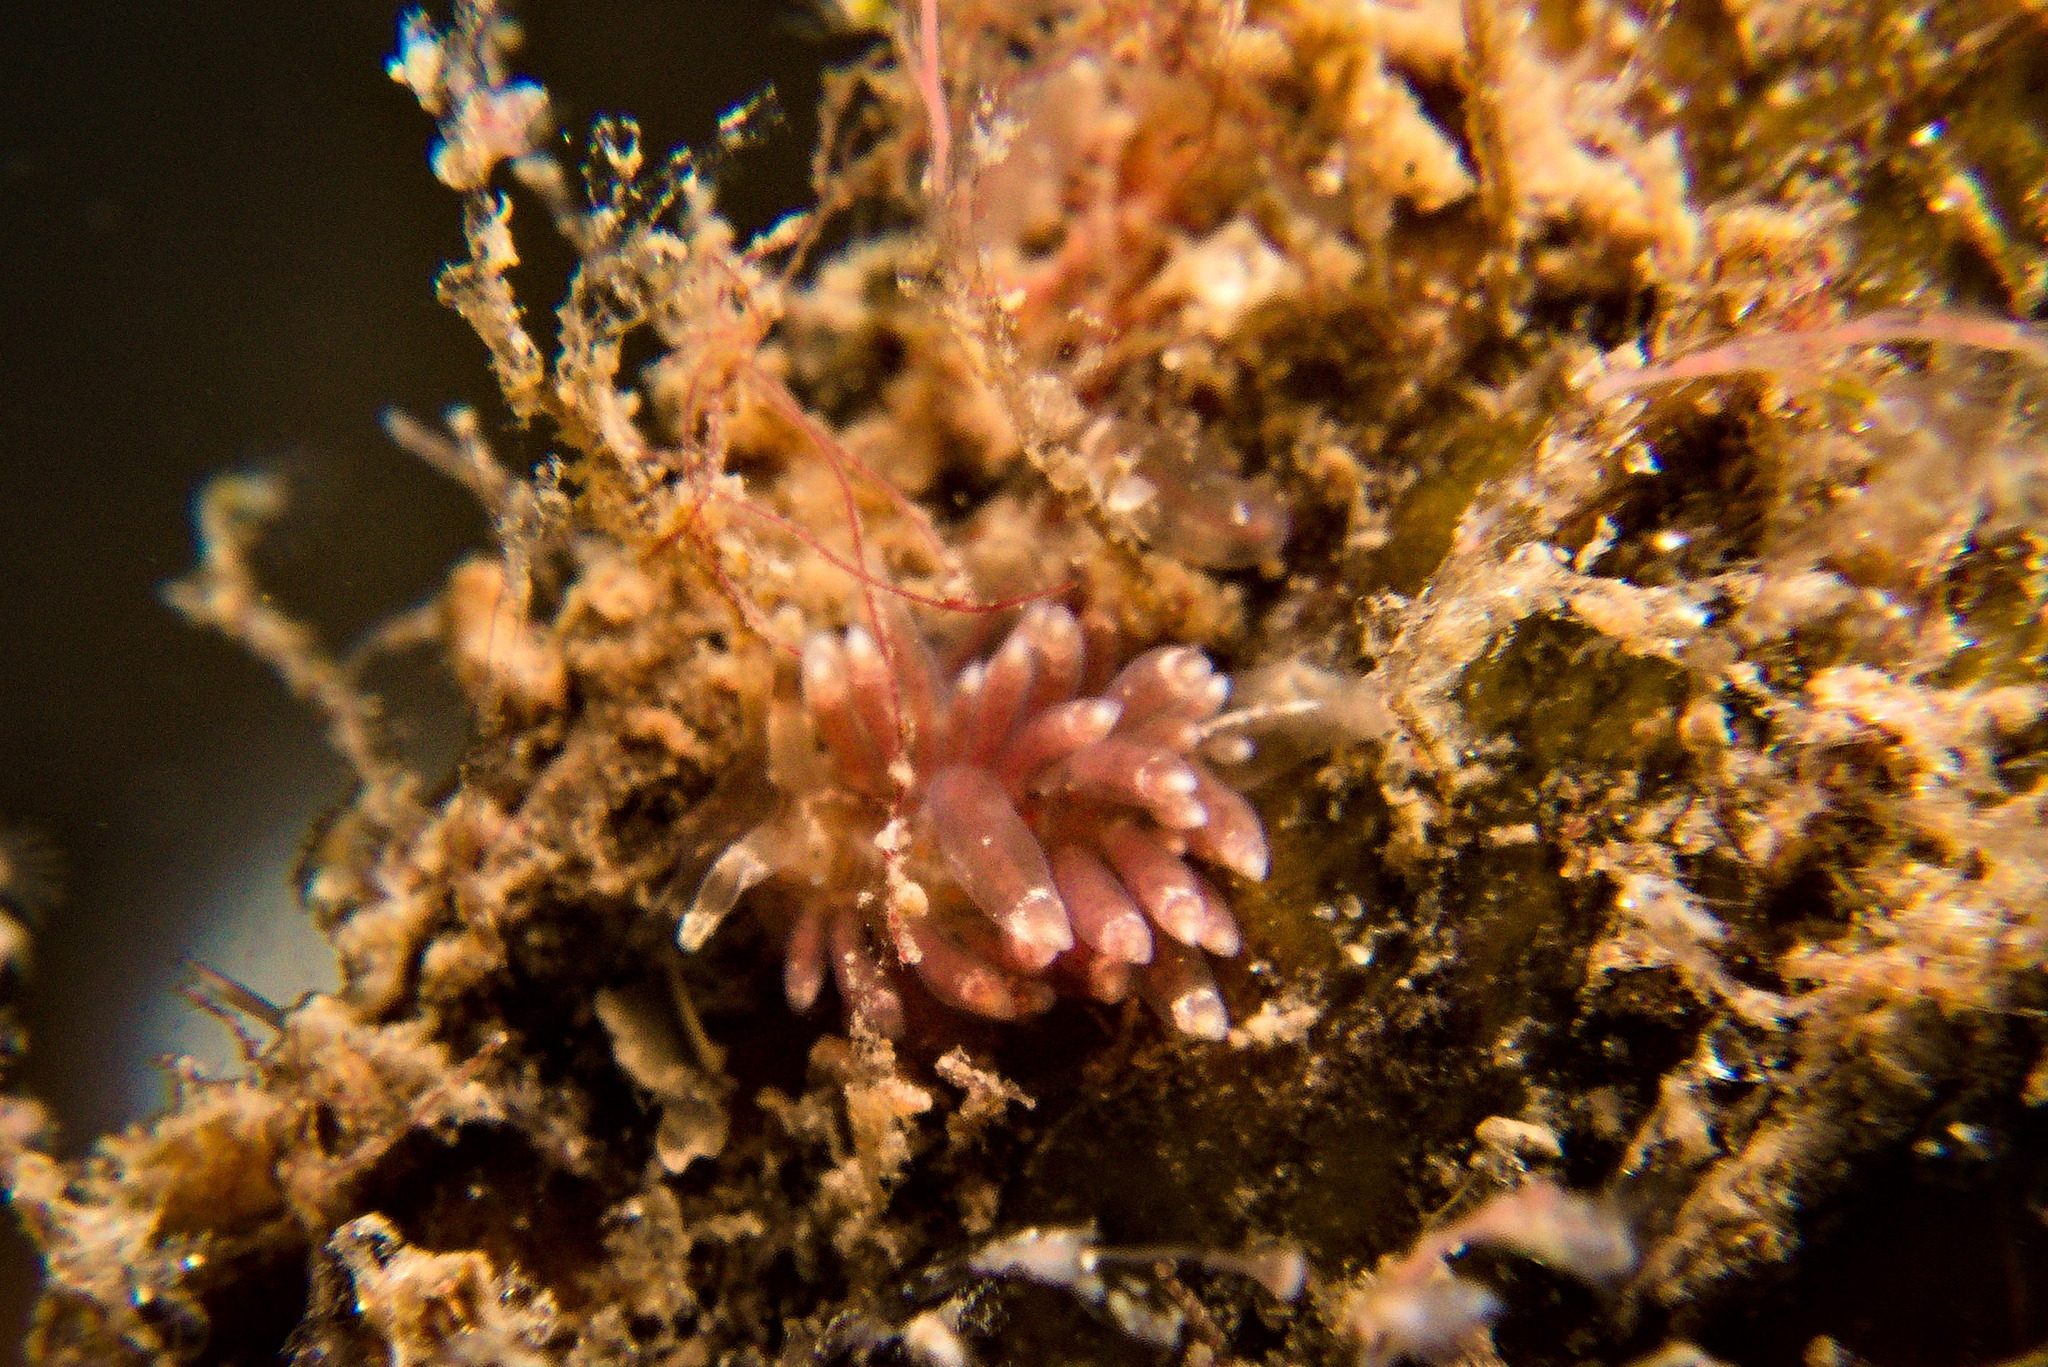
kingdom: Animalia
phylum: Mollusca
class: Gastropoda
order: Nudibranchia
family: Eubranchidae
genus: Amphorina
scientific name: Amphorina viriola
